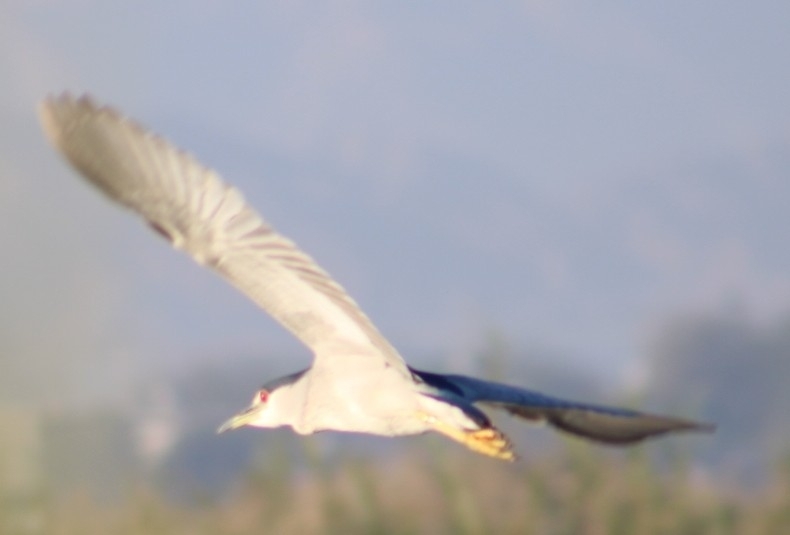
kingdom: Animalia
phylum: Chordata
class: Aves
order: Pelecaniformes
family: Ardeidae
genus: Nycticorax
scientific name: Nycticorax nycticorax
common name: Black-crowned night heron
